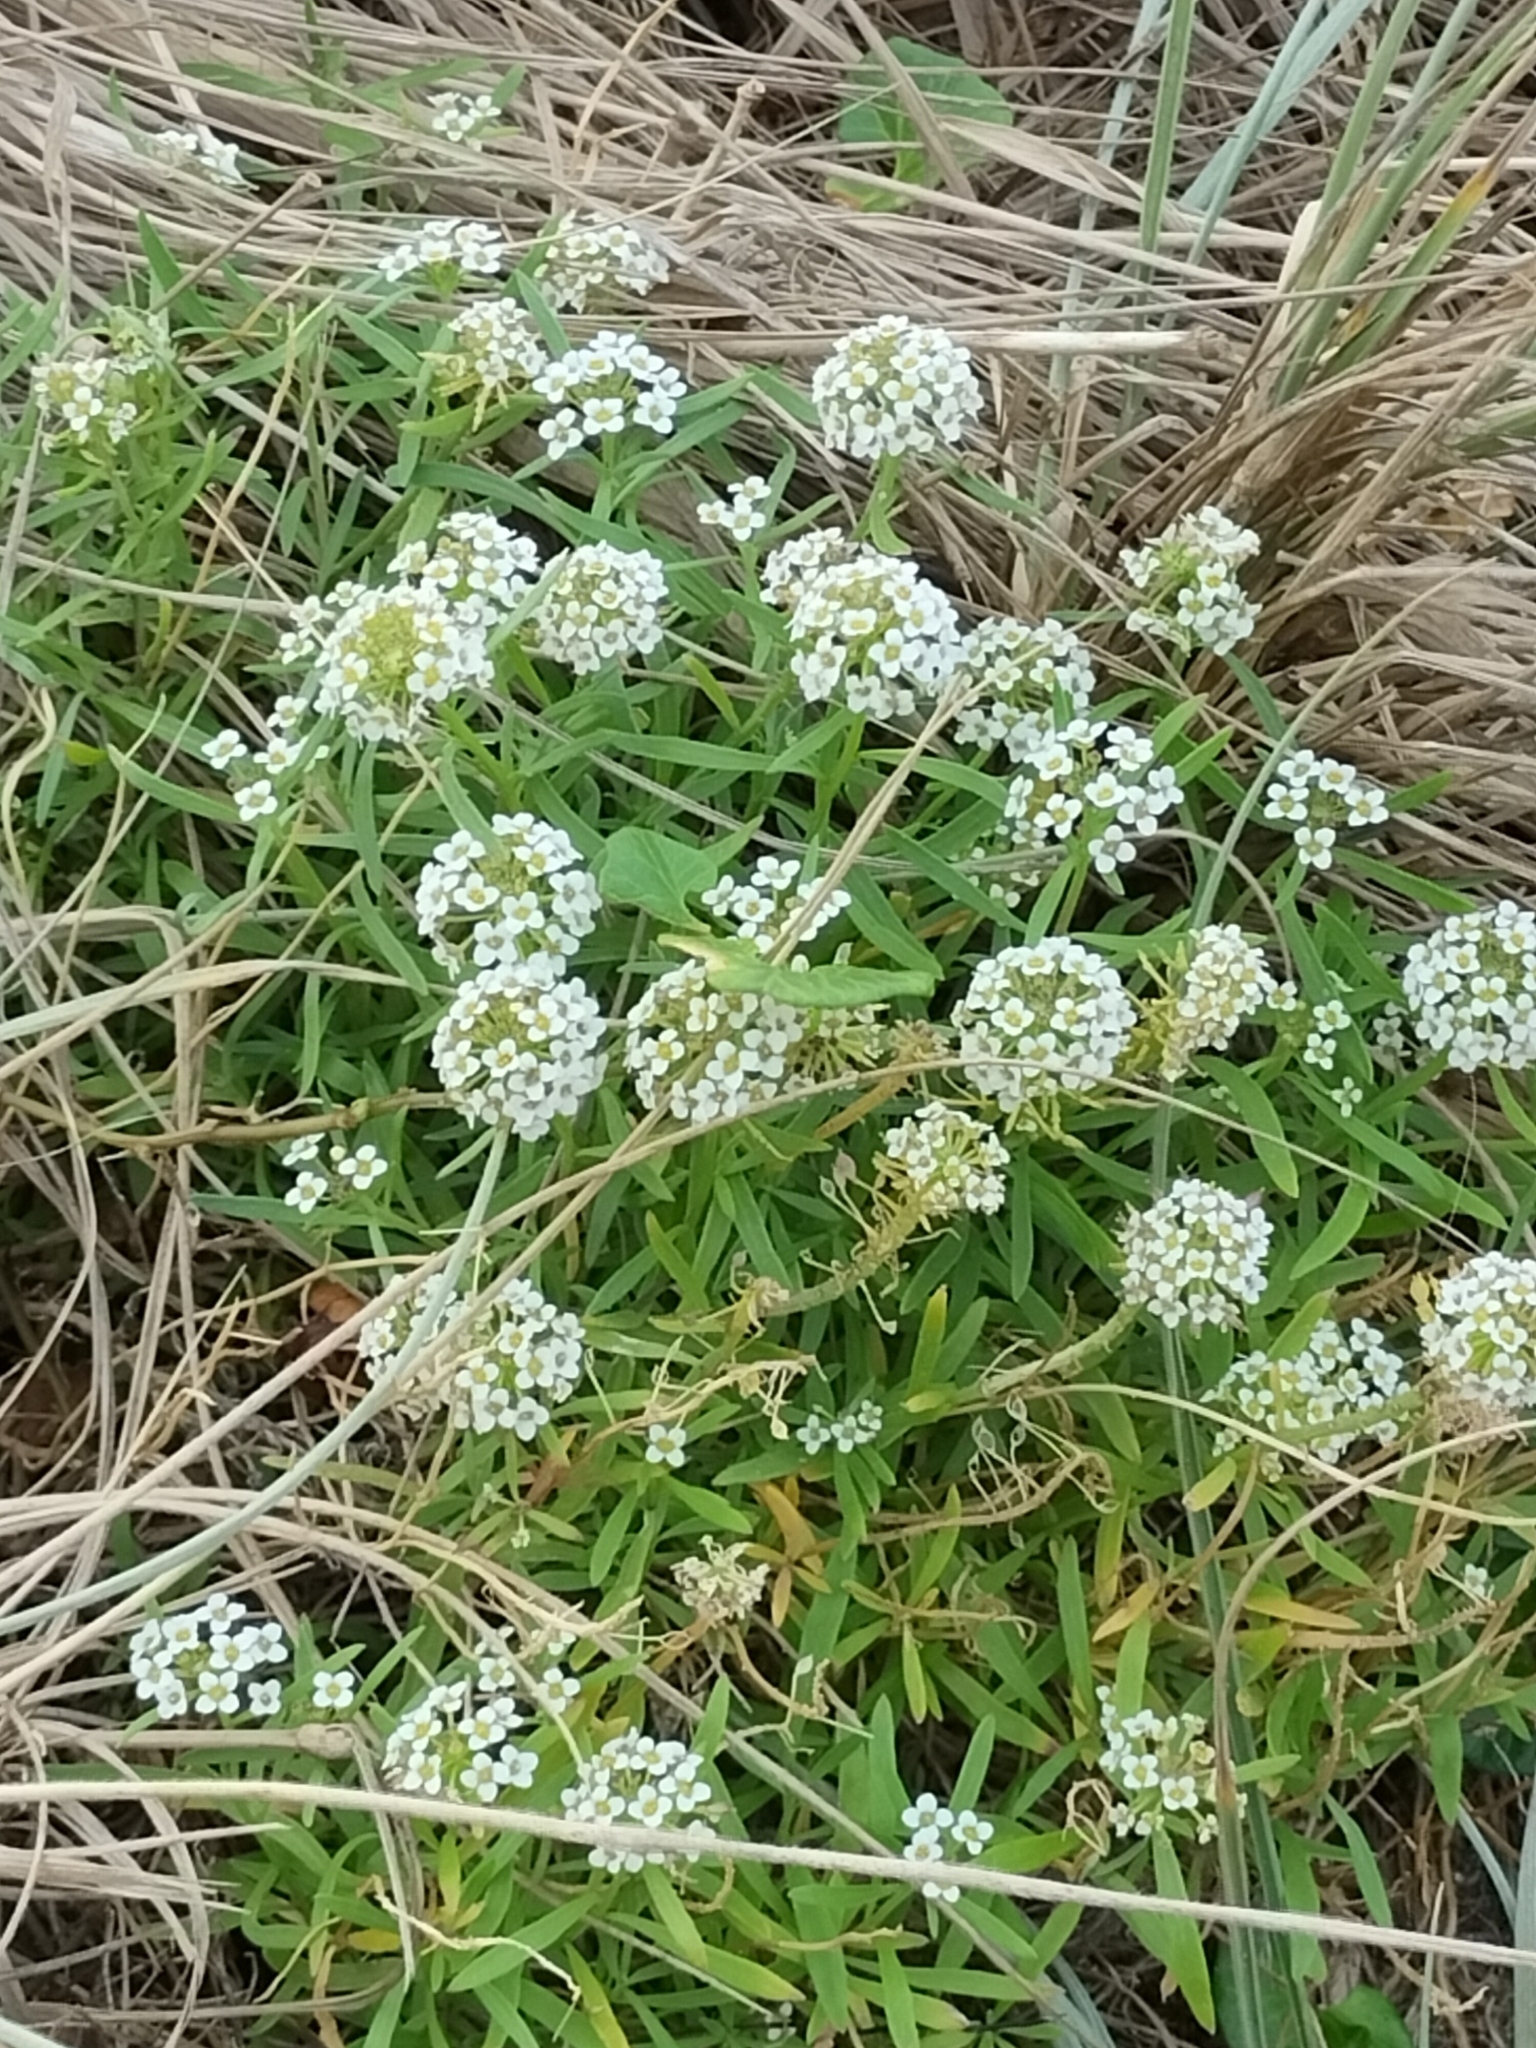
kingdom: Plantae
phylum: Tracheophyta
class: Magnoliopsida
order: Brassicales
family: Brassicaceae
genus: Lobularia
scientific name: Lobularia maritima
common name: Sweet alison
